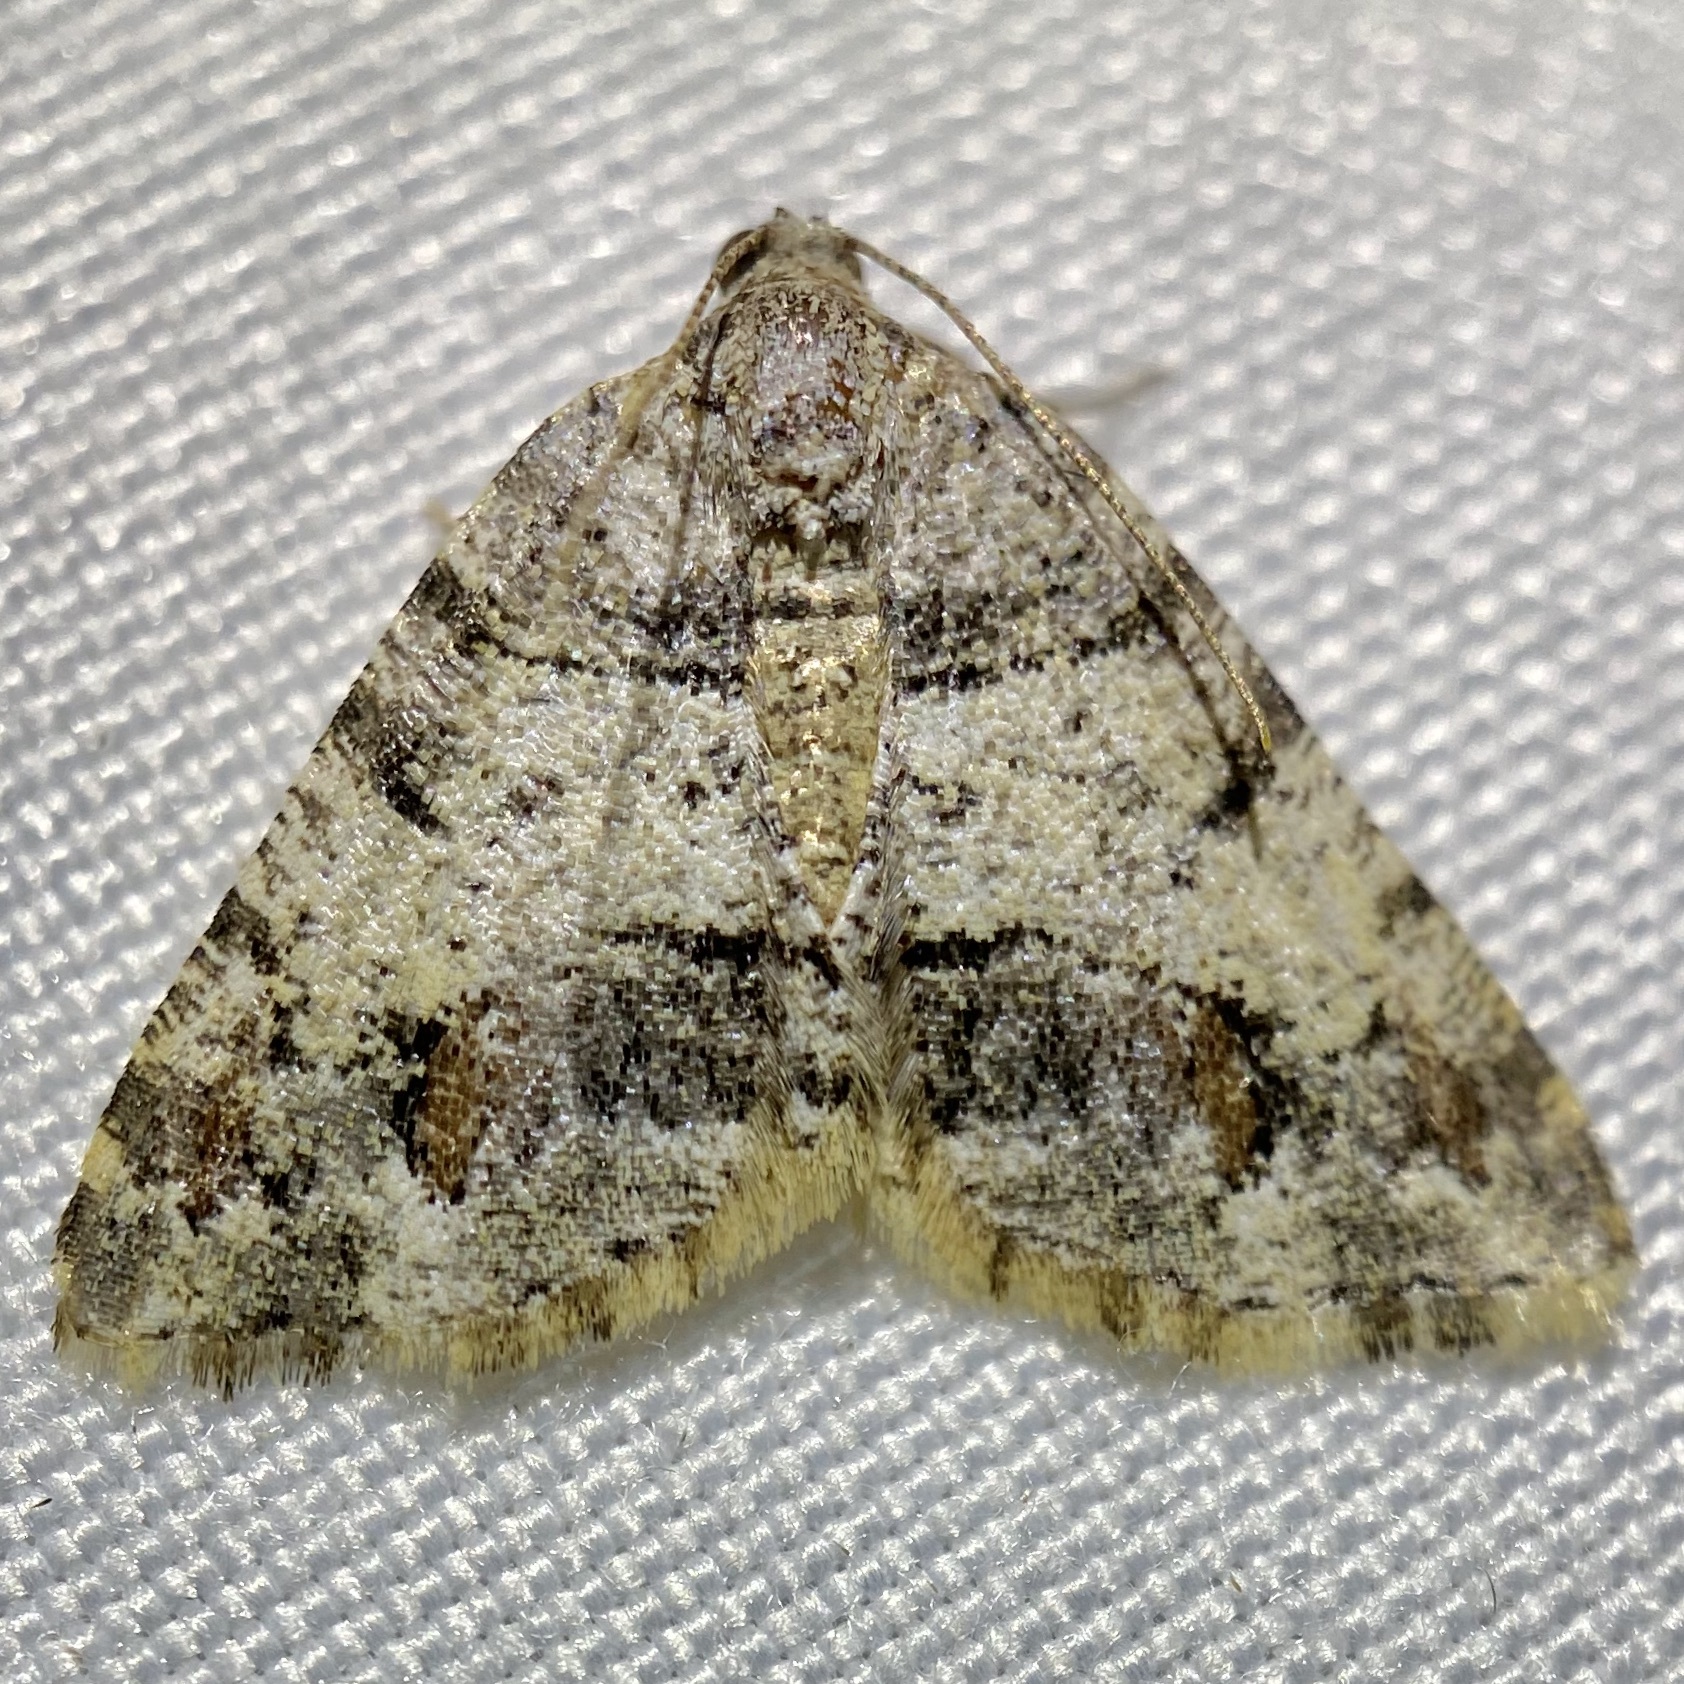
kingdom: Animalia
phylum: Arthropoda
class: Insecta
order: Lepidoptera
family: Geometridae
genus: Macaria
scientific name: Macaria deceptrix
